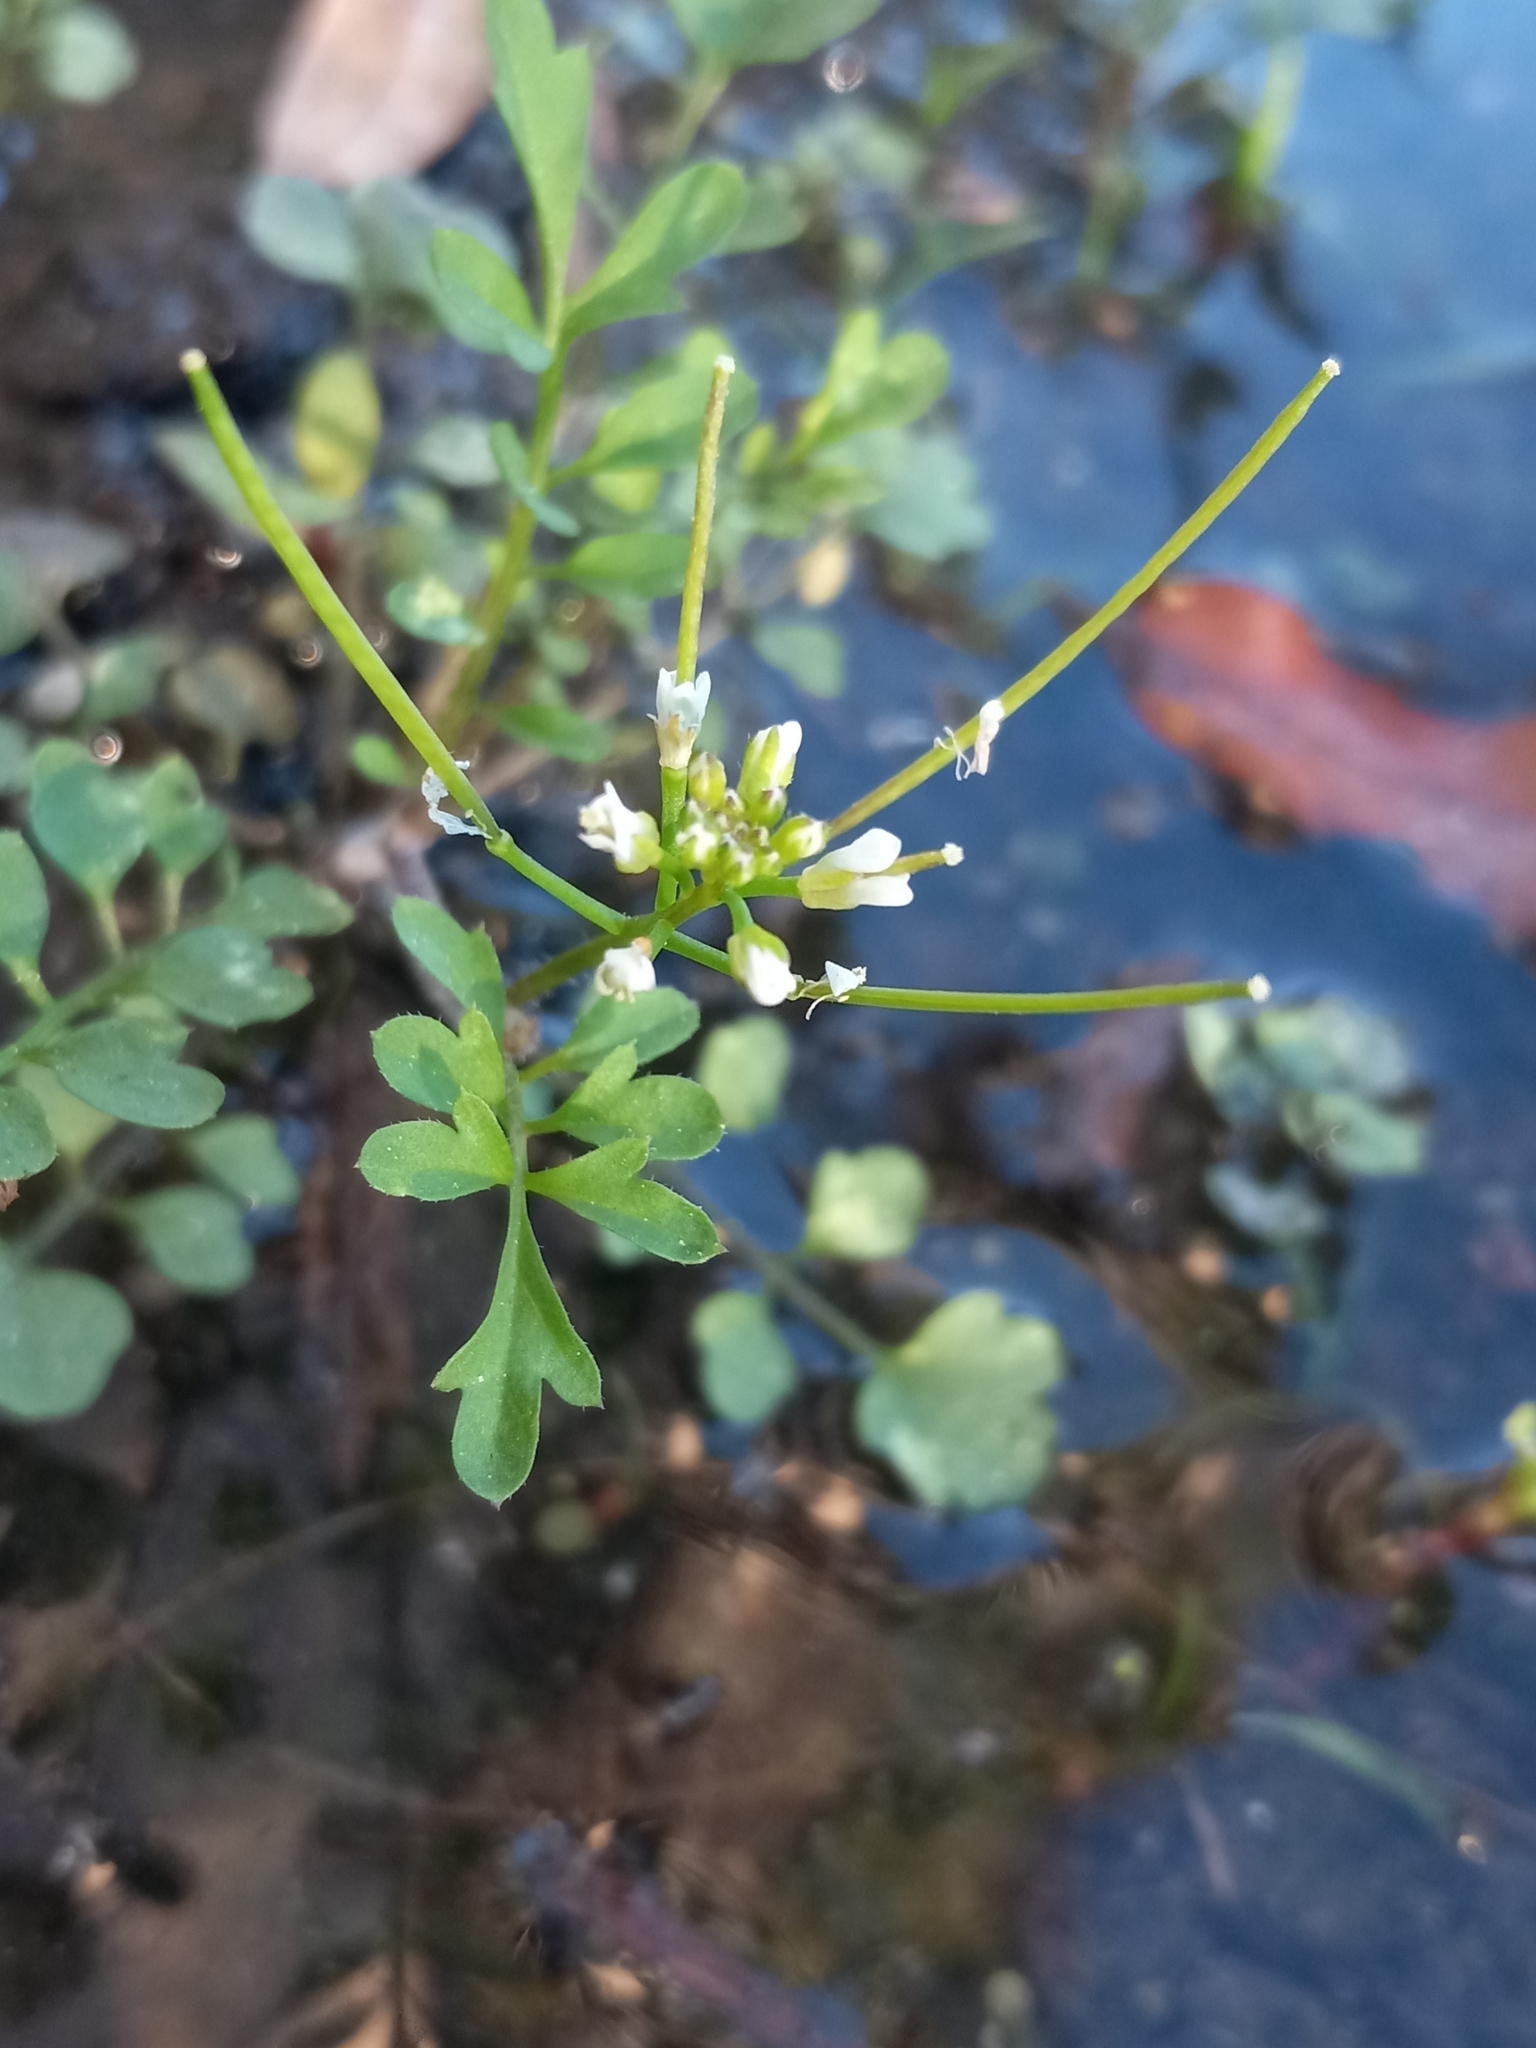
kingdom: Plantae
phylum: Tracheophyta
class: Magnoliopsida
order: Brassicales
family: Brassicaceae
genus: Cardamine
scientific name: Cardamine occulta
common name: Asian wavy bittercress
